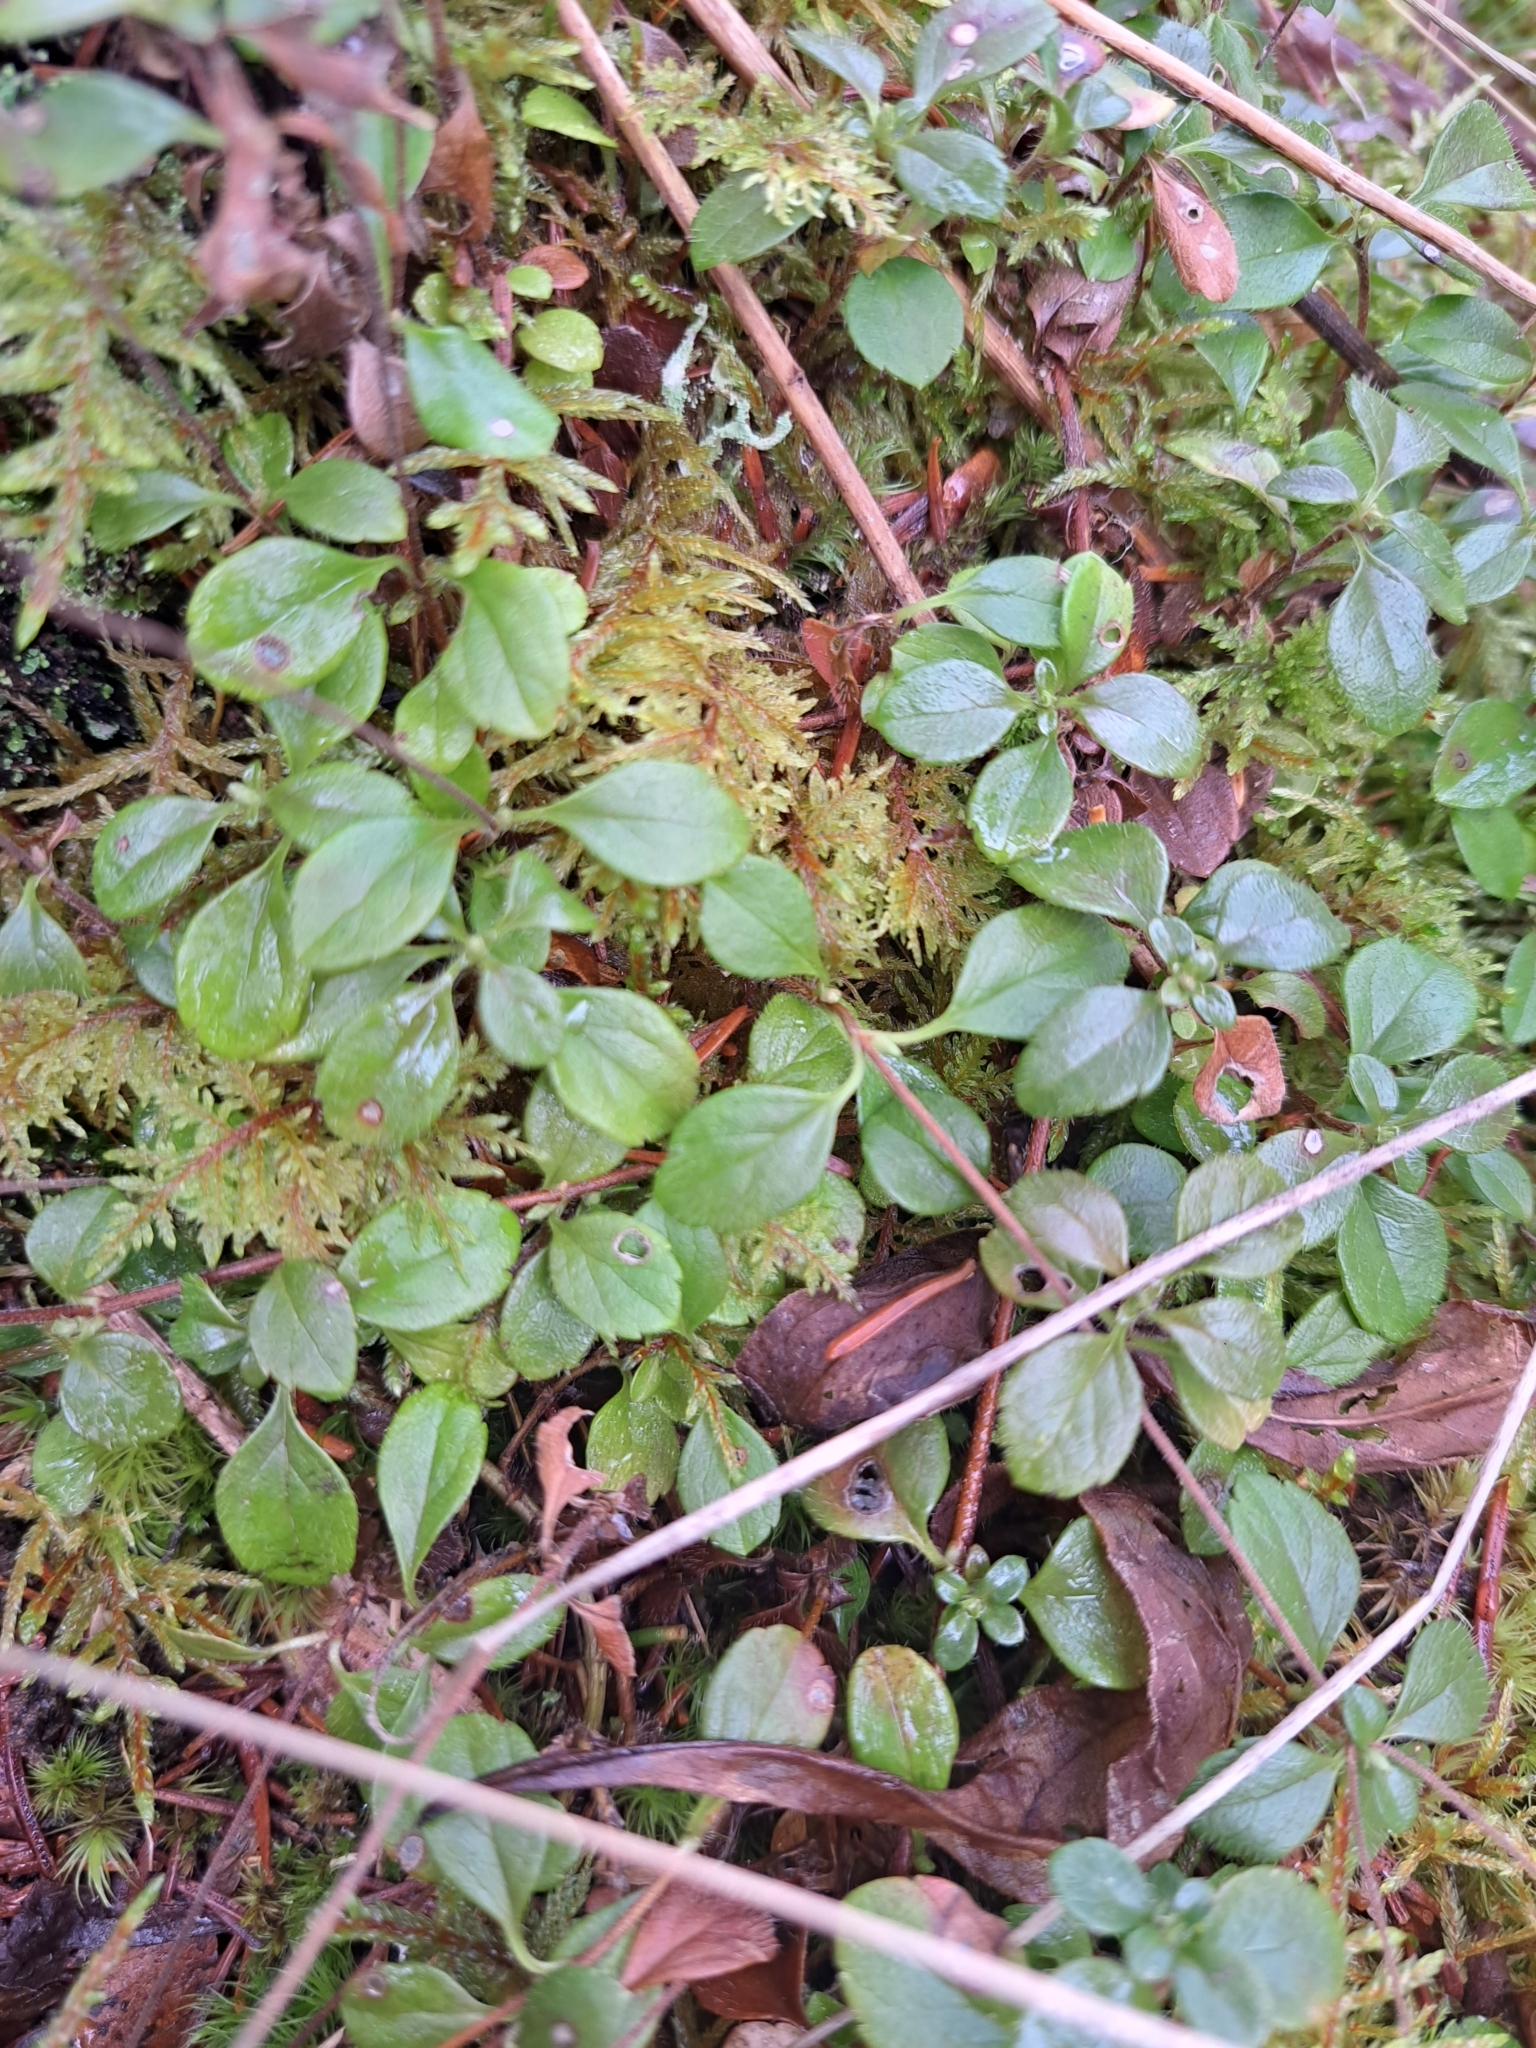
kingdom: Plantae
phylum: Tracheophyta
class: Magnoliopsida
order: Dipsacales
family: Caprifoliaceae
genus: Linnaea
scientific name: Linnaea borealis
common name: Twinflower
